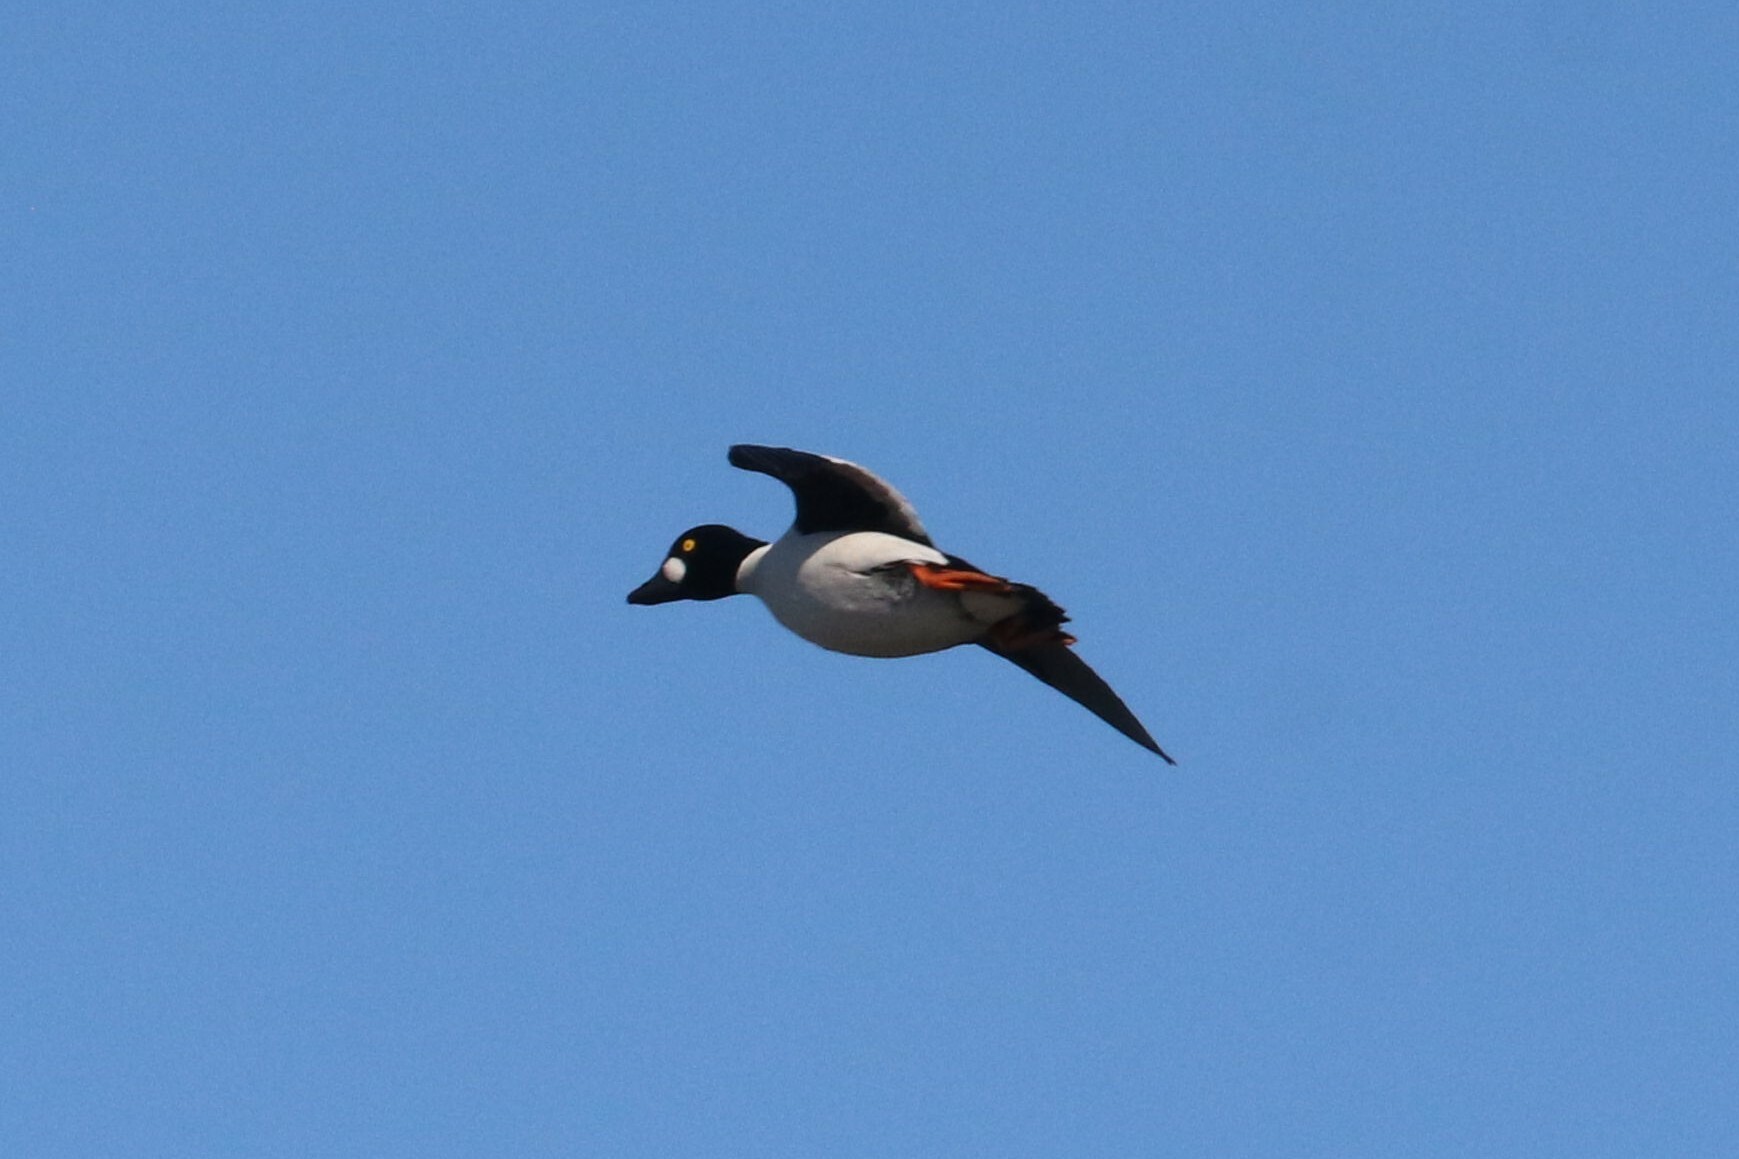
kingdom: Animalia
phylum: Chordata
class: Aves
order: Anseriformes
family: Anatidae
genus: Bucephala
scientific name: Bucephala clangula
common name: Common goldeneye
